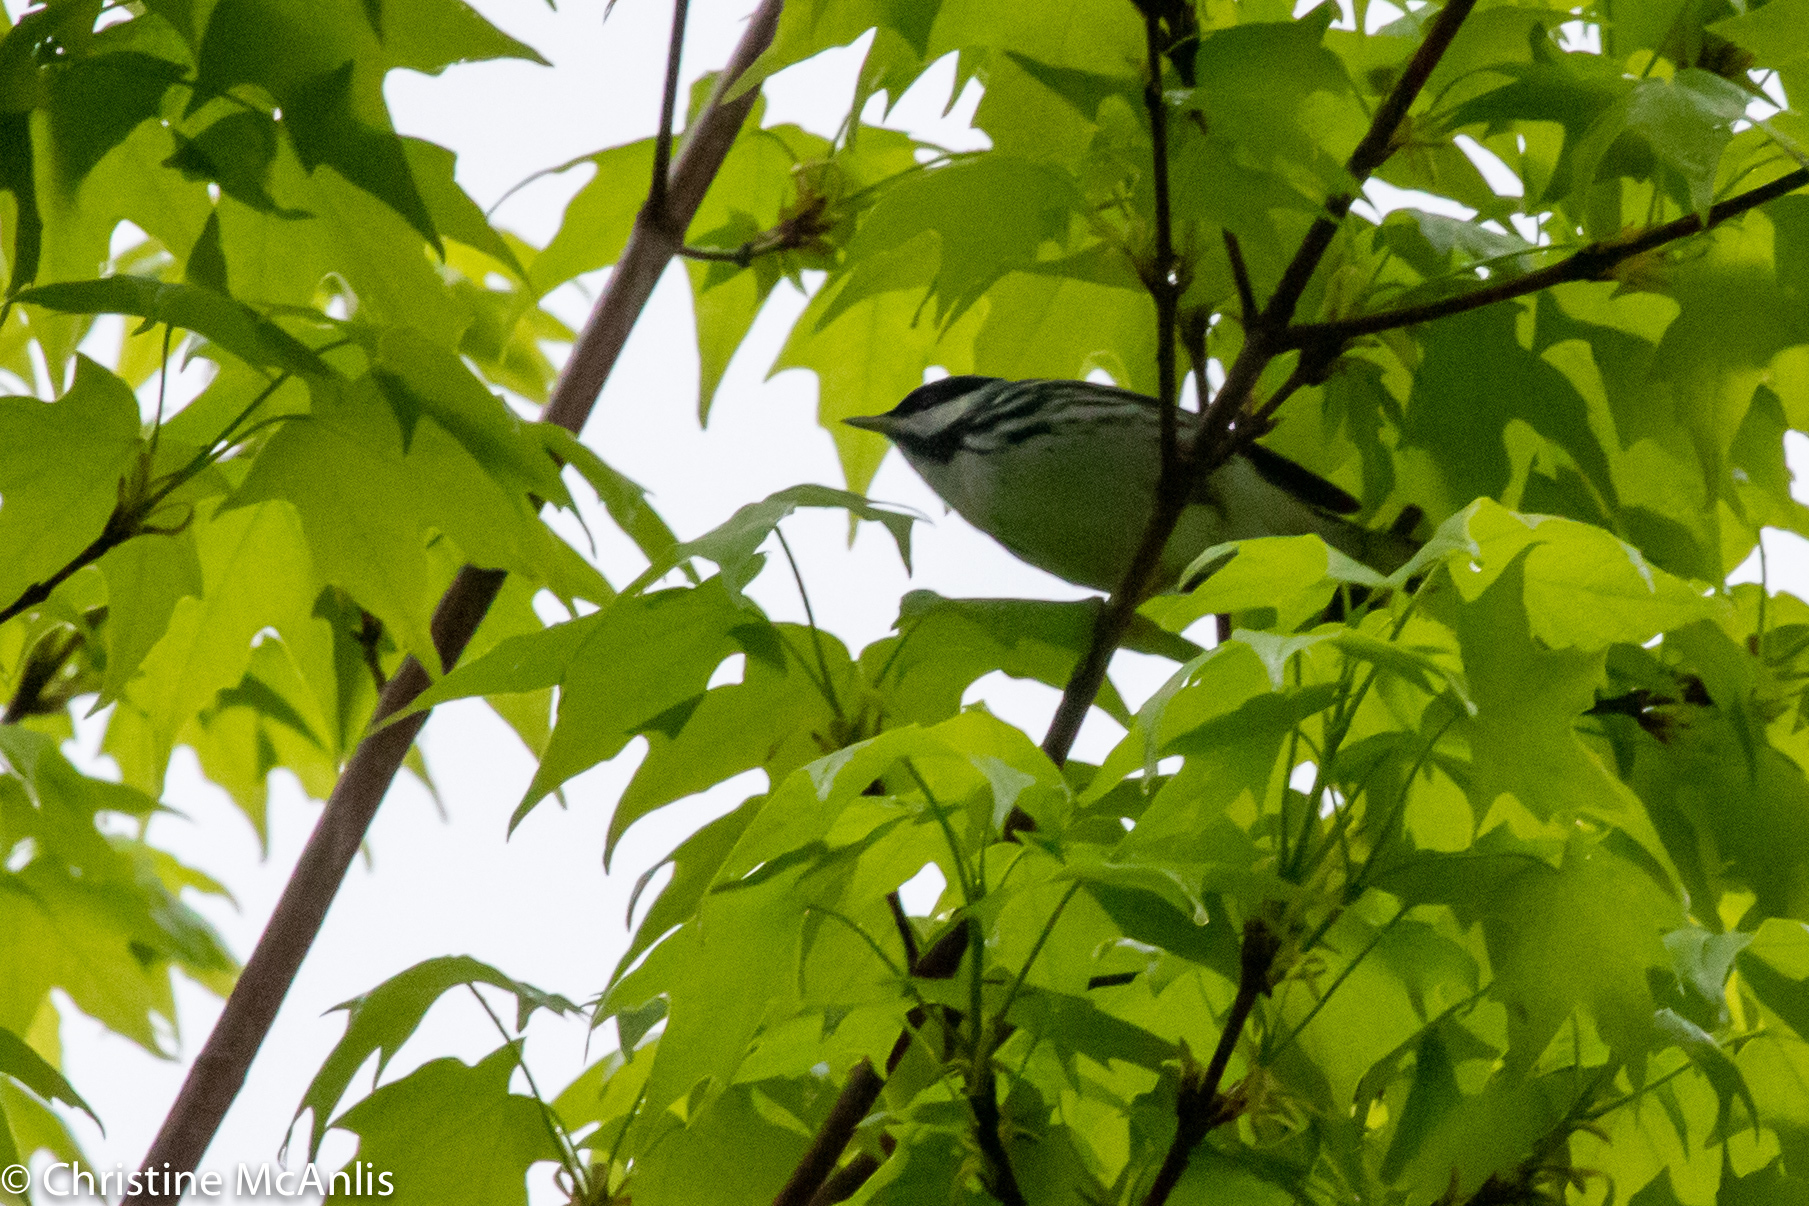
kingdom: Animalia
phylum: Chordata
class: Aves
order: Passeriformes
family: Parulidae
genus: Setophaga
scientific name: Setophaga striata
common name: Blackpoll warbler
